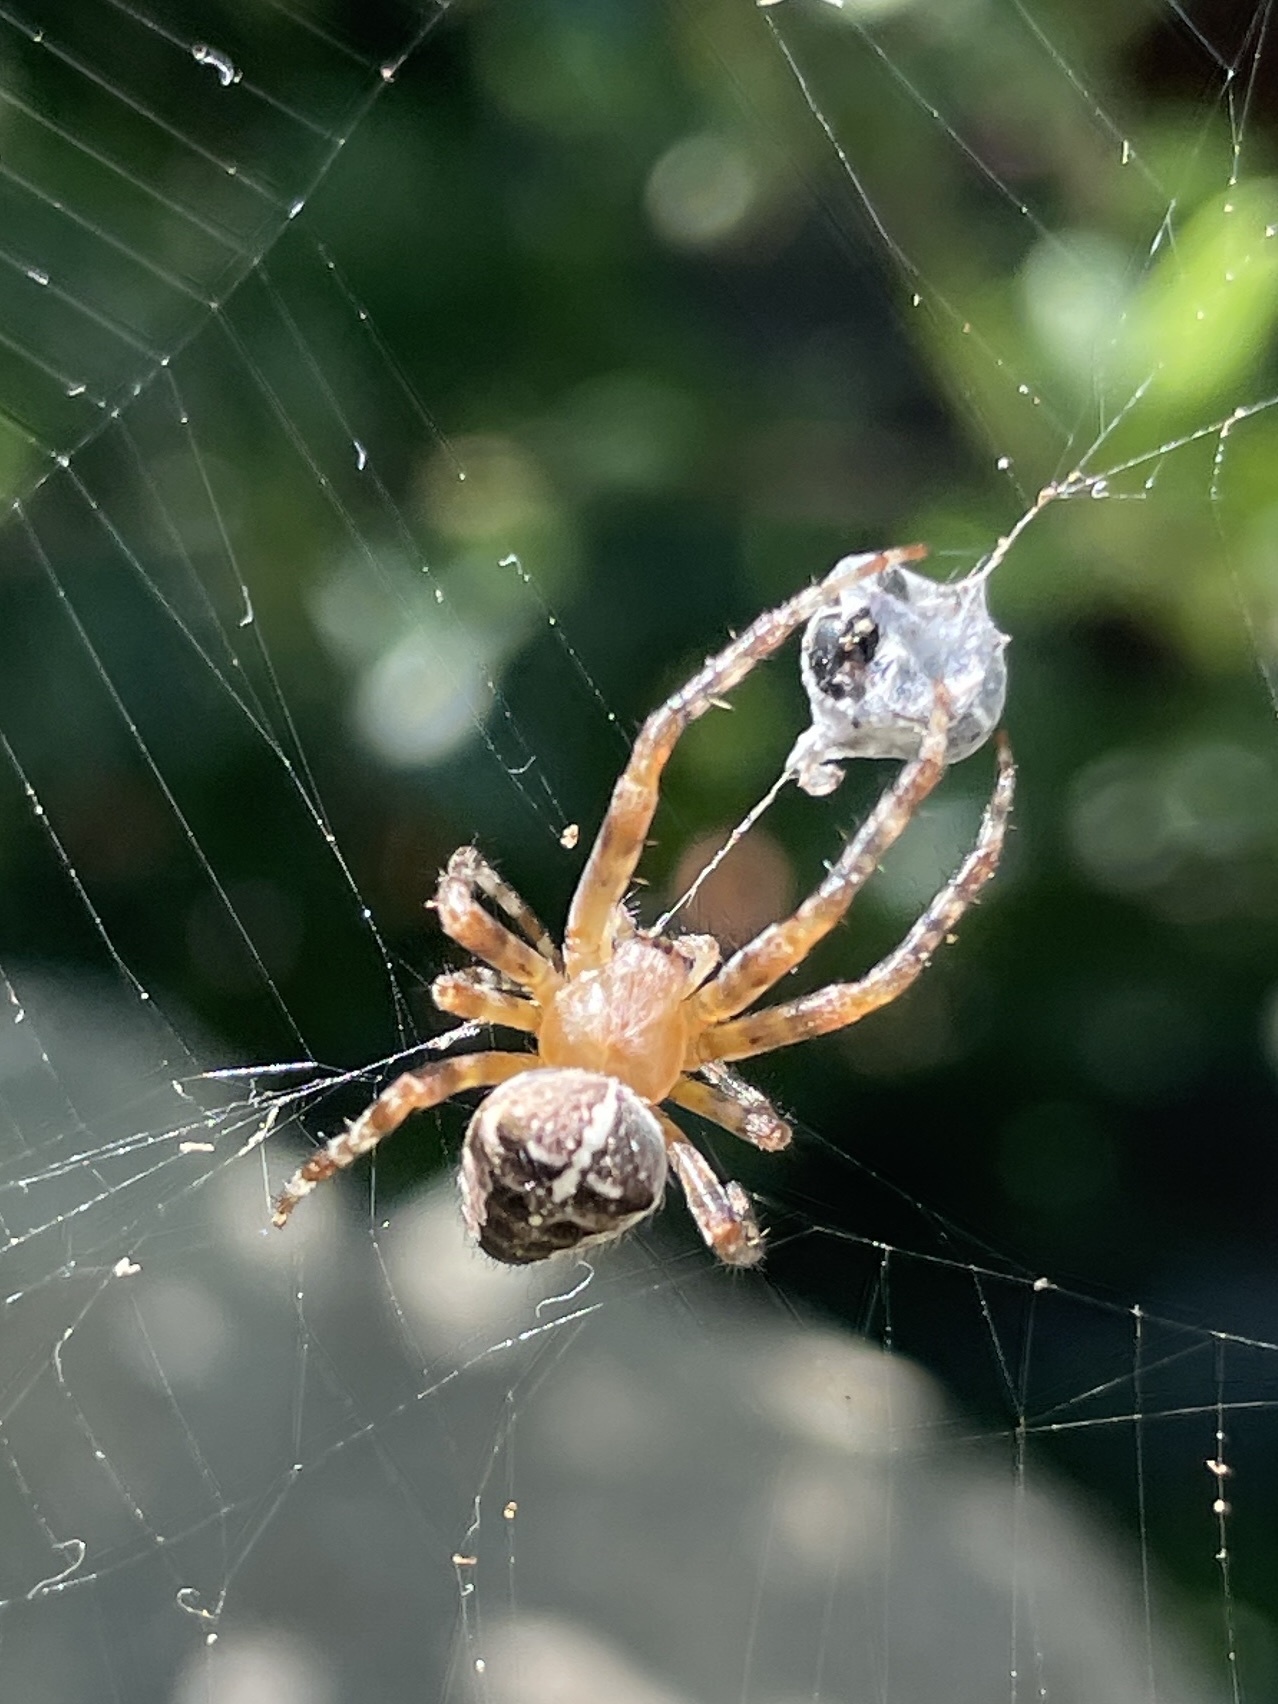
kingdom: Animalia
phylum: Arthropoda
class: Arachnida
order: Araneae
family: Araneidae
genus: Araneus
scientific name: Araneus diadematus
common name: Cross orbweaver
